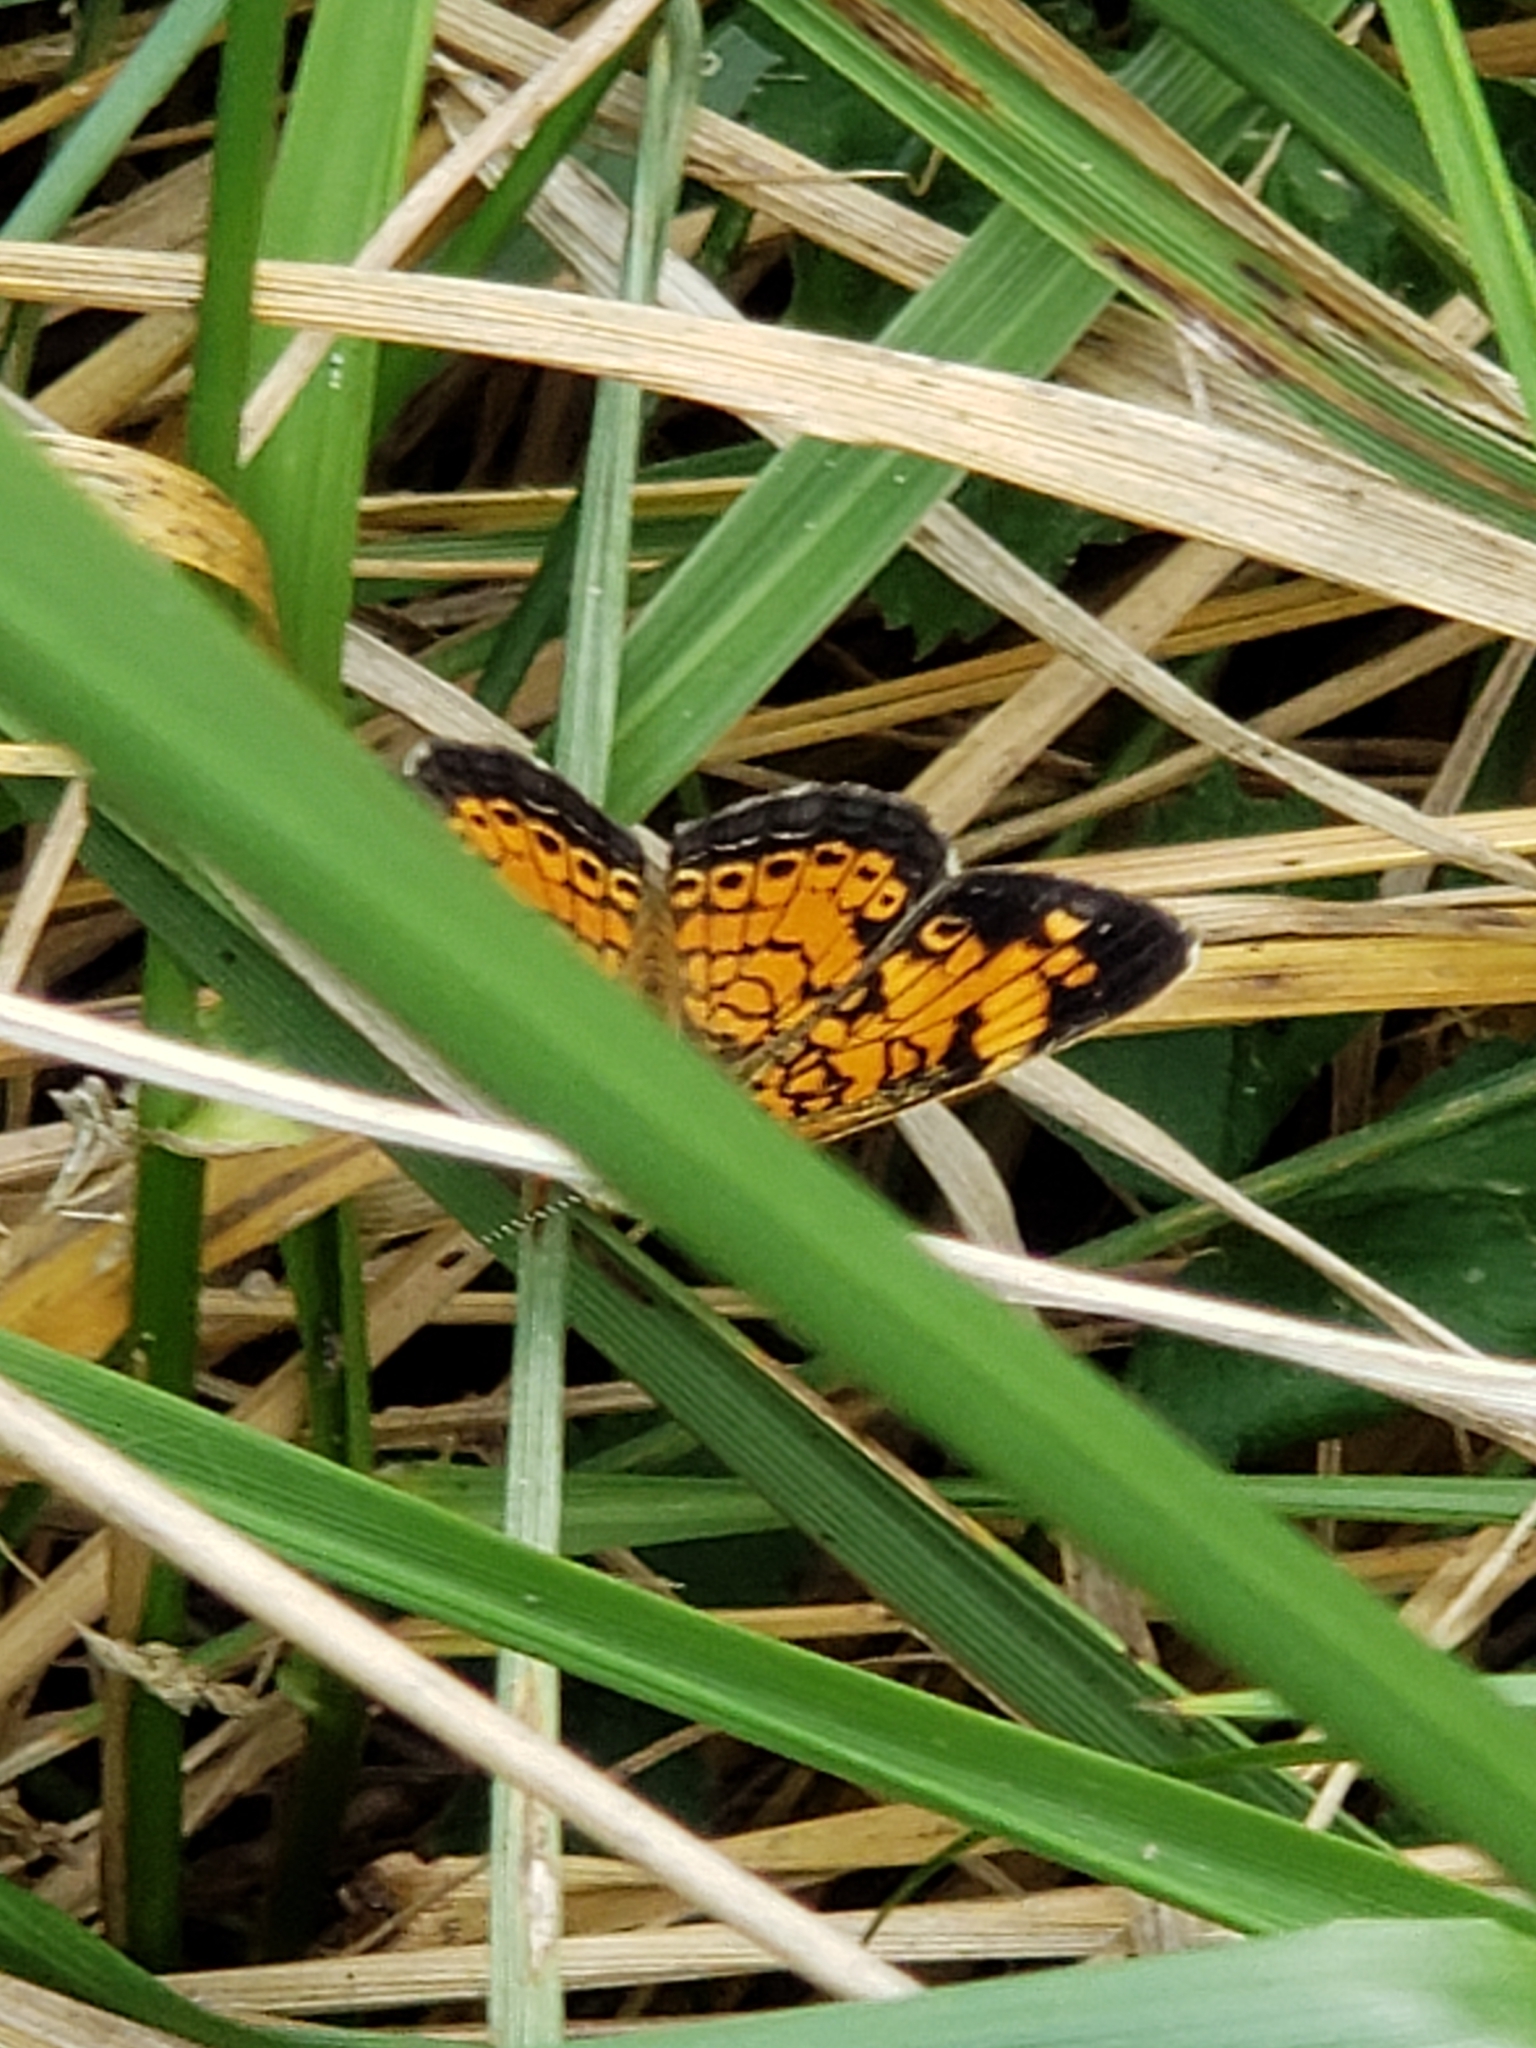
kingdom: Animalia
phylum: Arthropoda
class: Insecta
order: Lepidoptera
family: Nymphalidae
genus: Phyciodes
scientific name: Phyciodes tharos
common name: Pearl crescent
